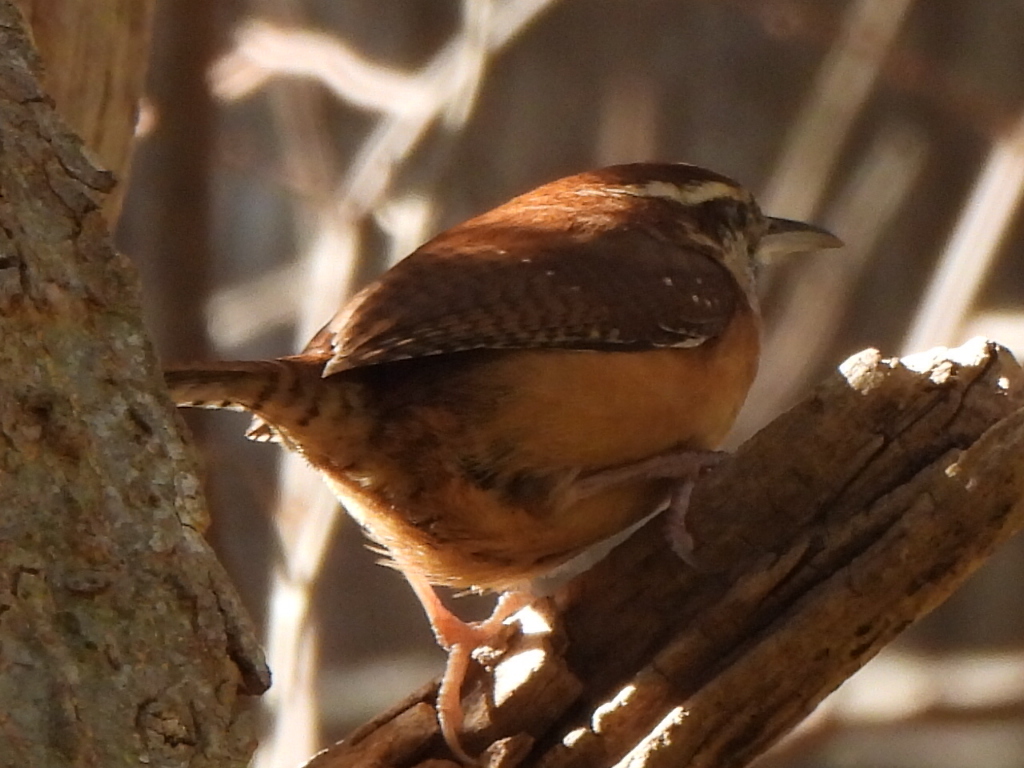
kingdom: Animalia
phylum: Chordata
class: Aves
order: Passeriformes
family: Troglodytidae
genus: Thryothorus
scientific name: Thryothorus ludovicianus
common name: Carolina wren
